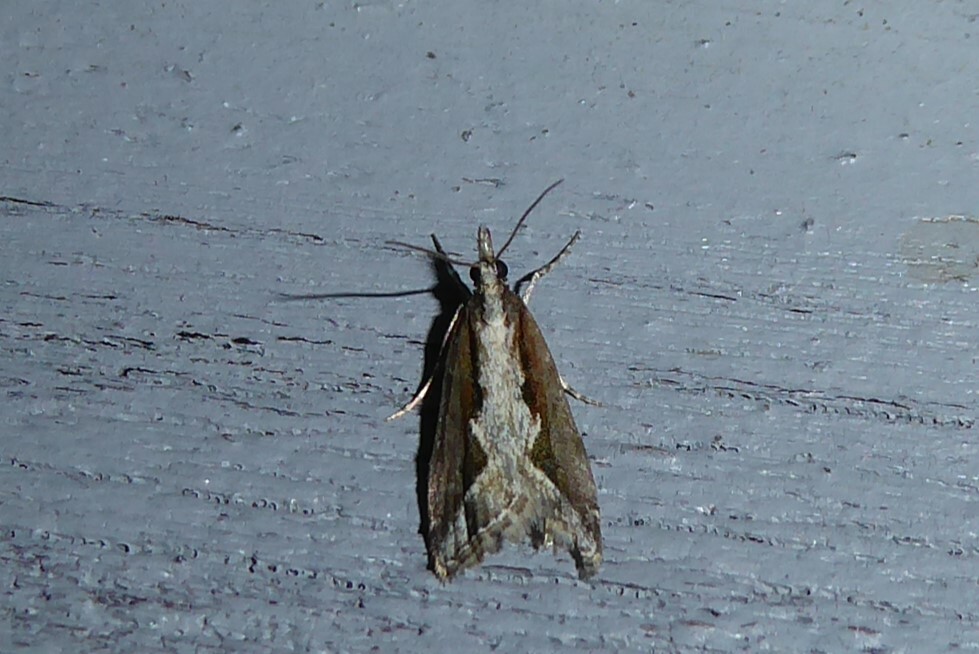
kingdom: Animalia
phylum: Arthropoda
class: Insecta
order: Lepidoptera
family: Crambidae
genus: Eudonia
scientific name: Eudonia steropaea
